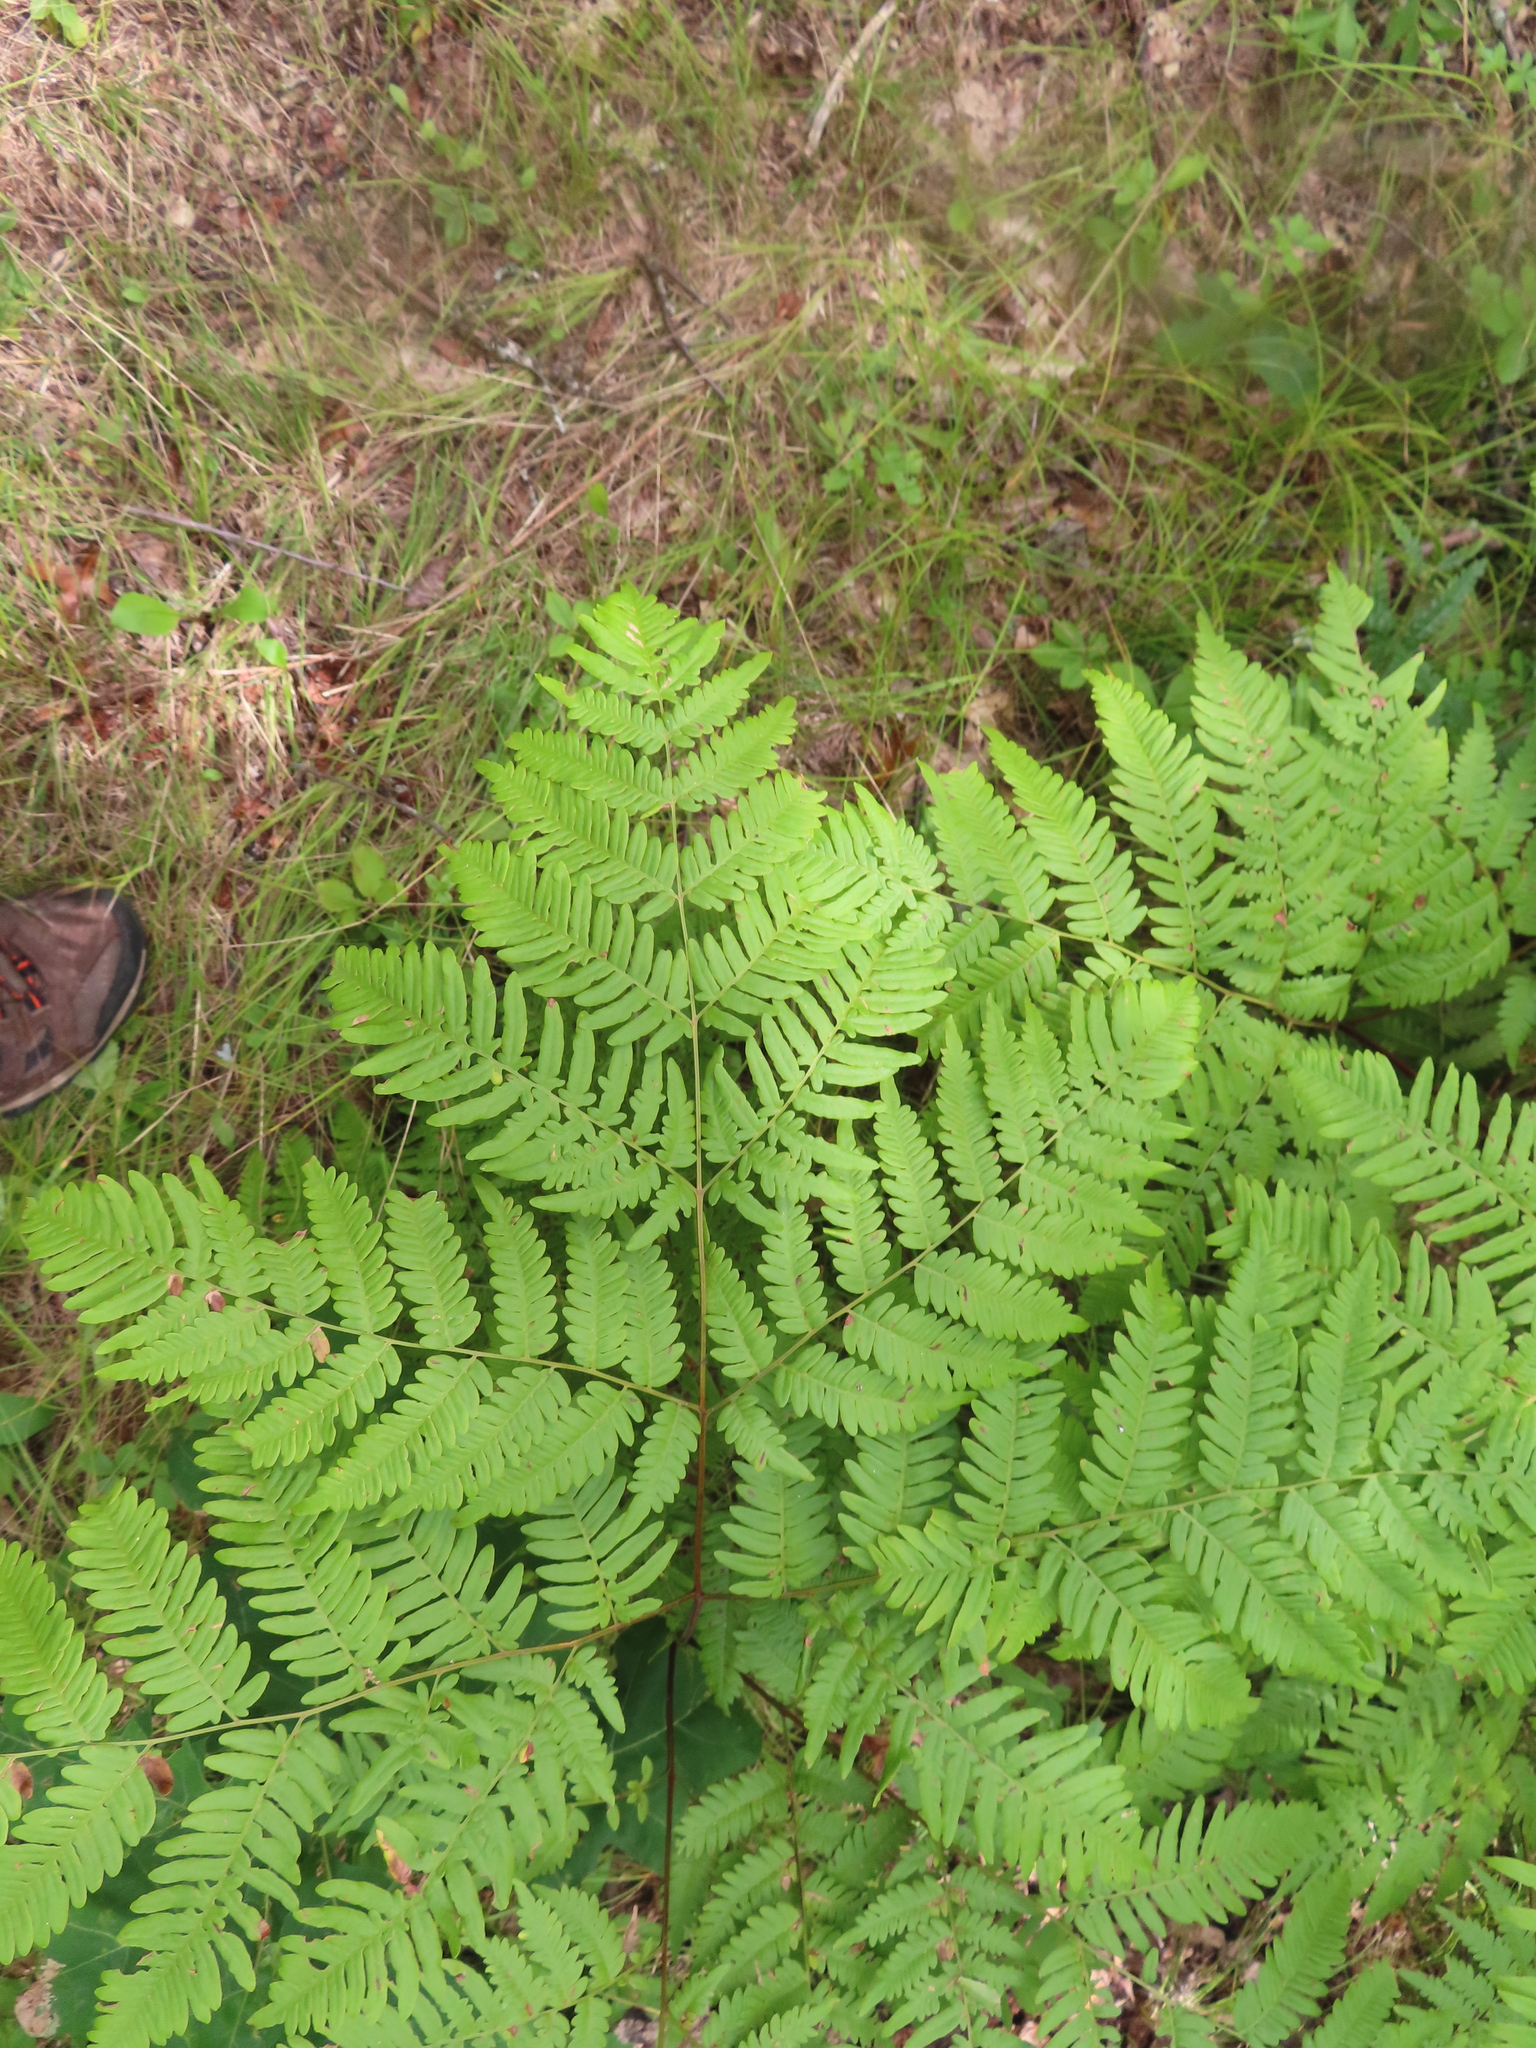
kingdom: Plantae
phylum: Tracheophyta
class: Polypodiopsida
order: Polypodiales
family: Dennstaedtiaceae
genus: Pteridium
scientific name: Pteridium aquilinum
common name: Bracken
